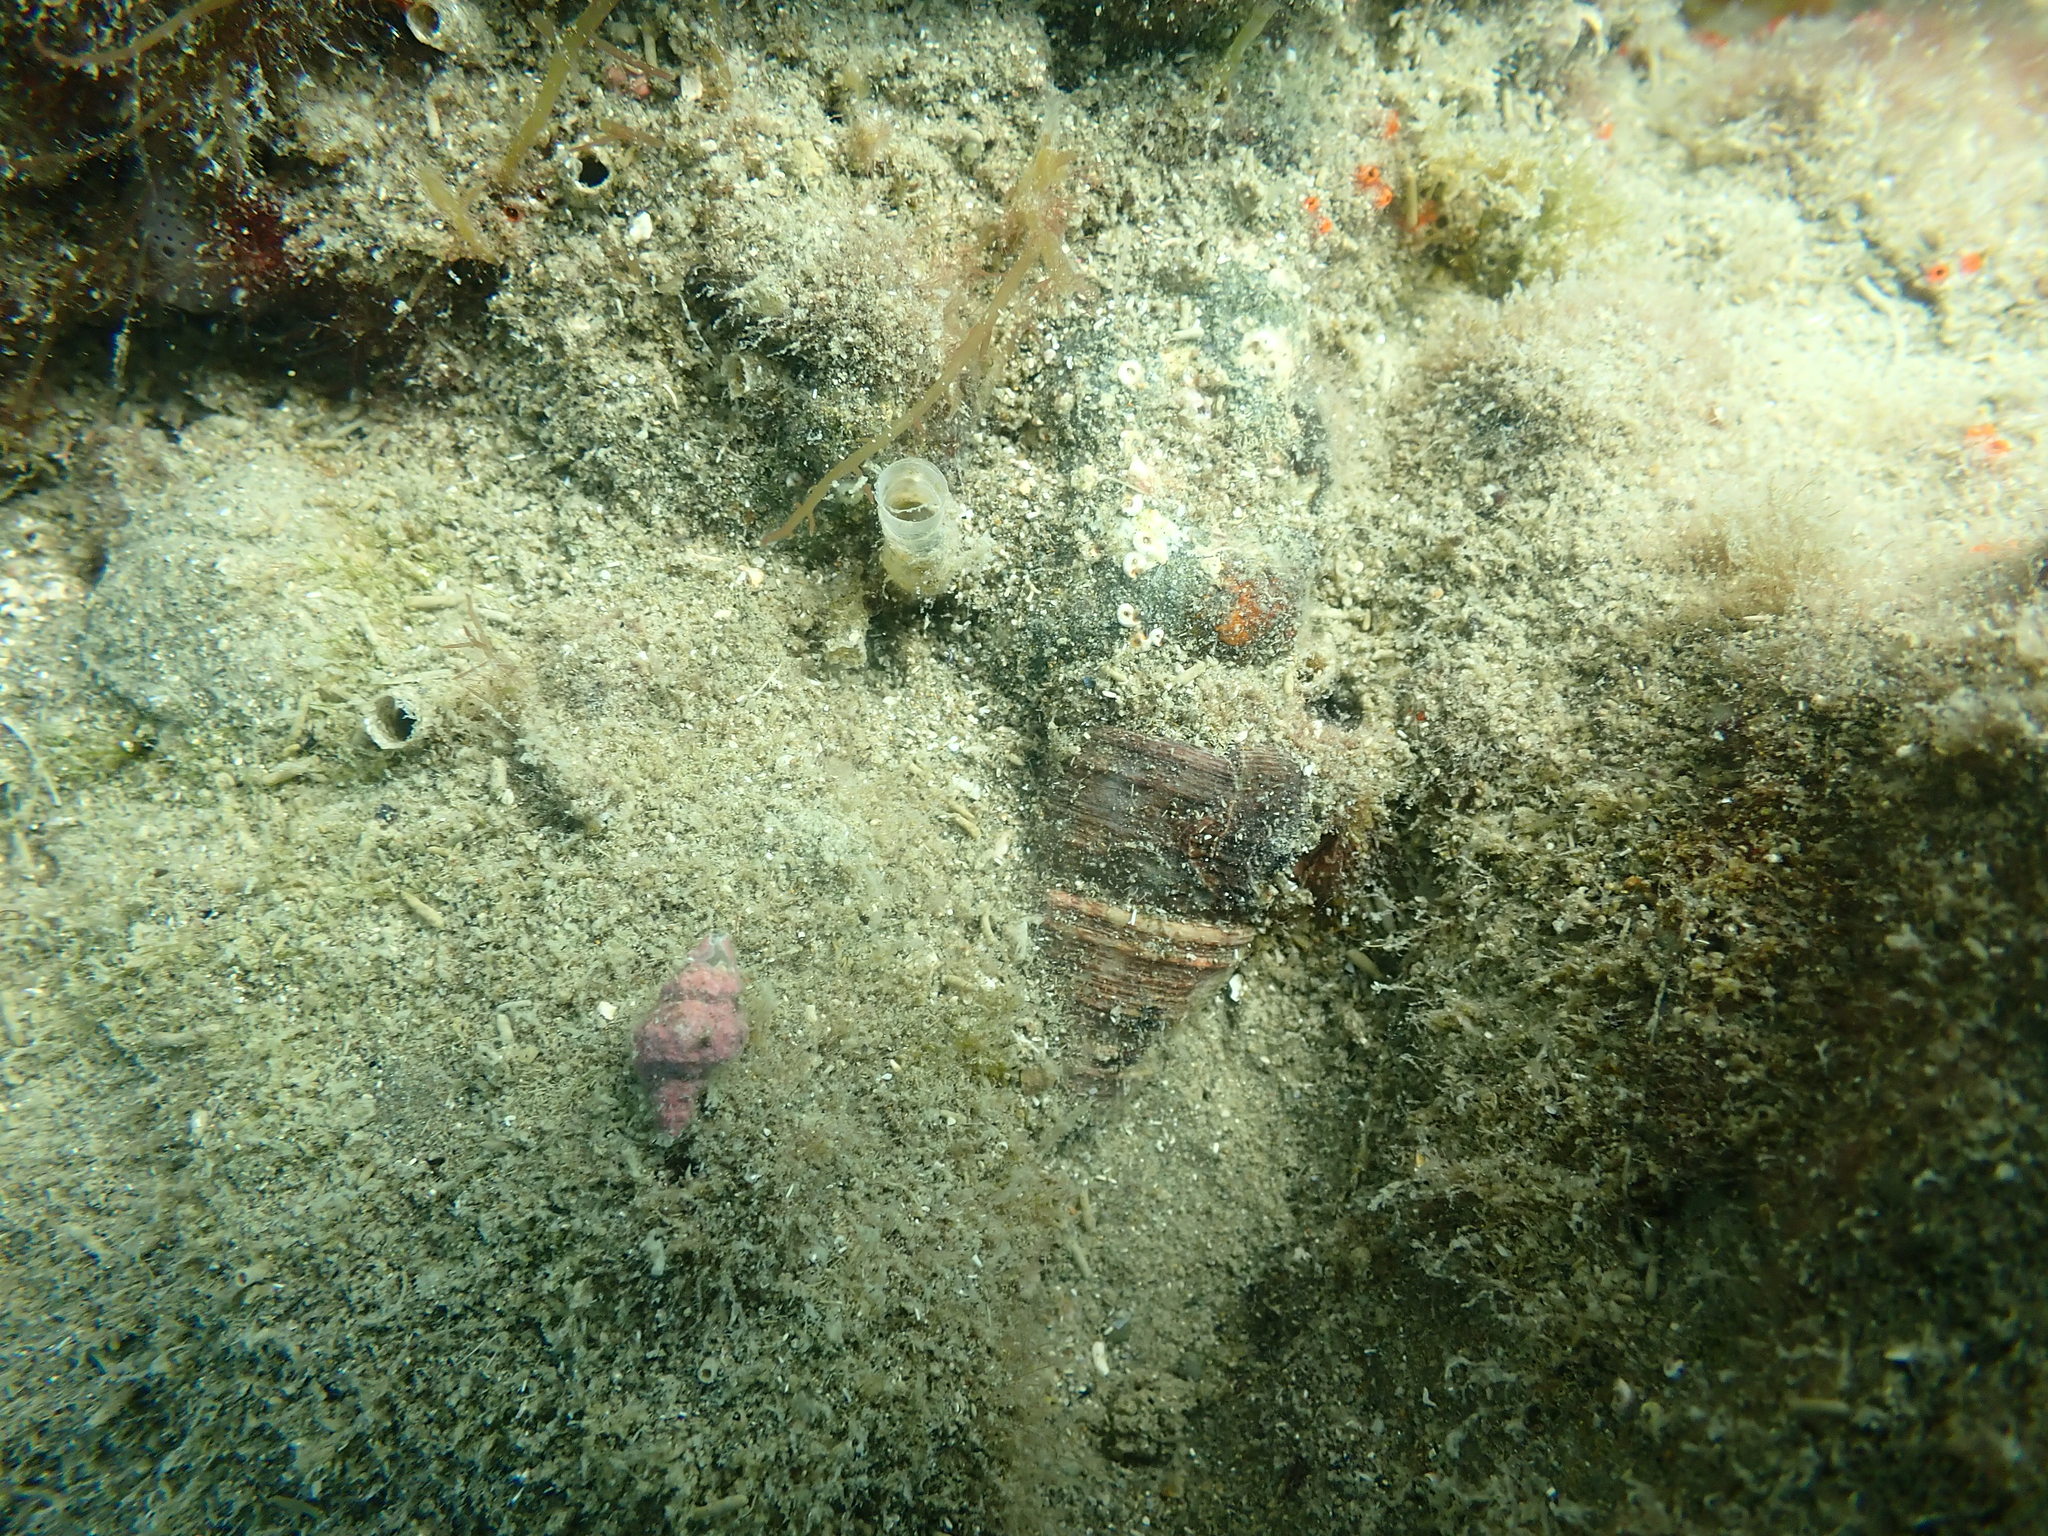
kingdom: Animalia
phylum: Mollusca
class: Gastropoda
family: Turritellidae
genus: Maoricolpus
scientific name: Maoricolpus roseus
